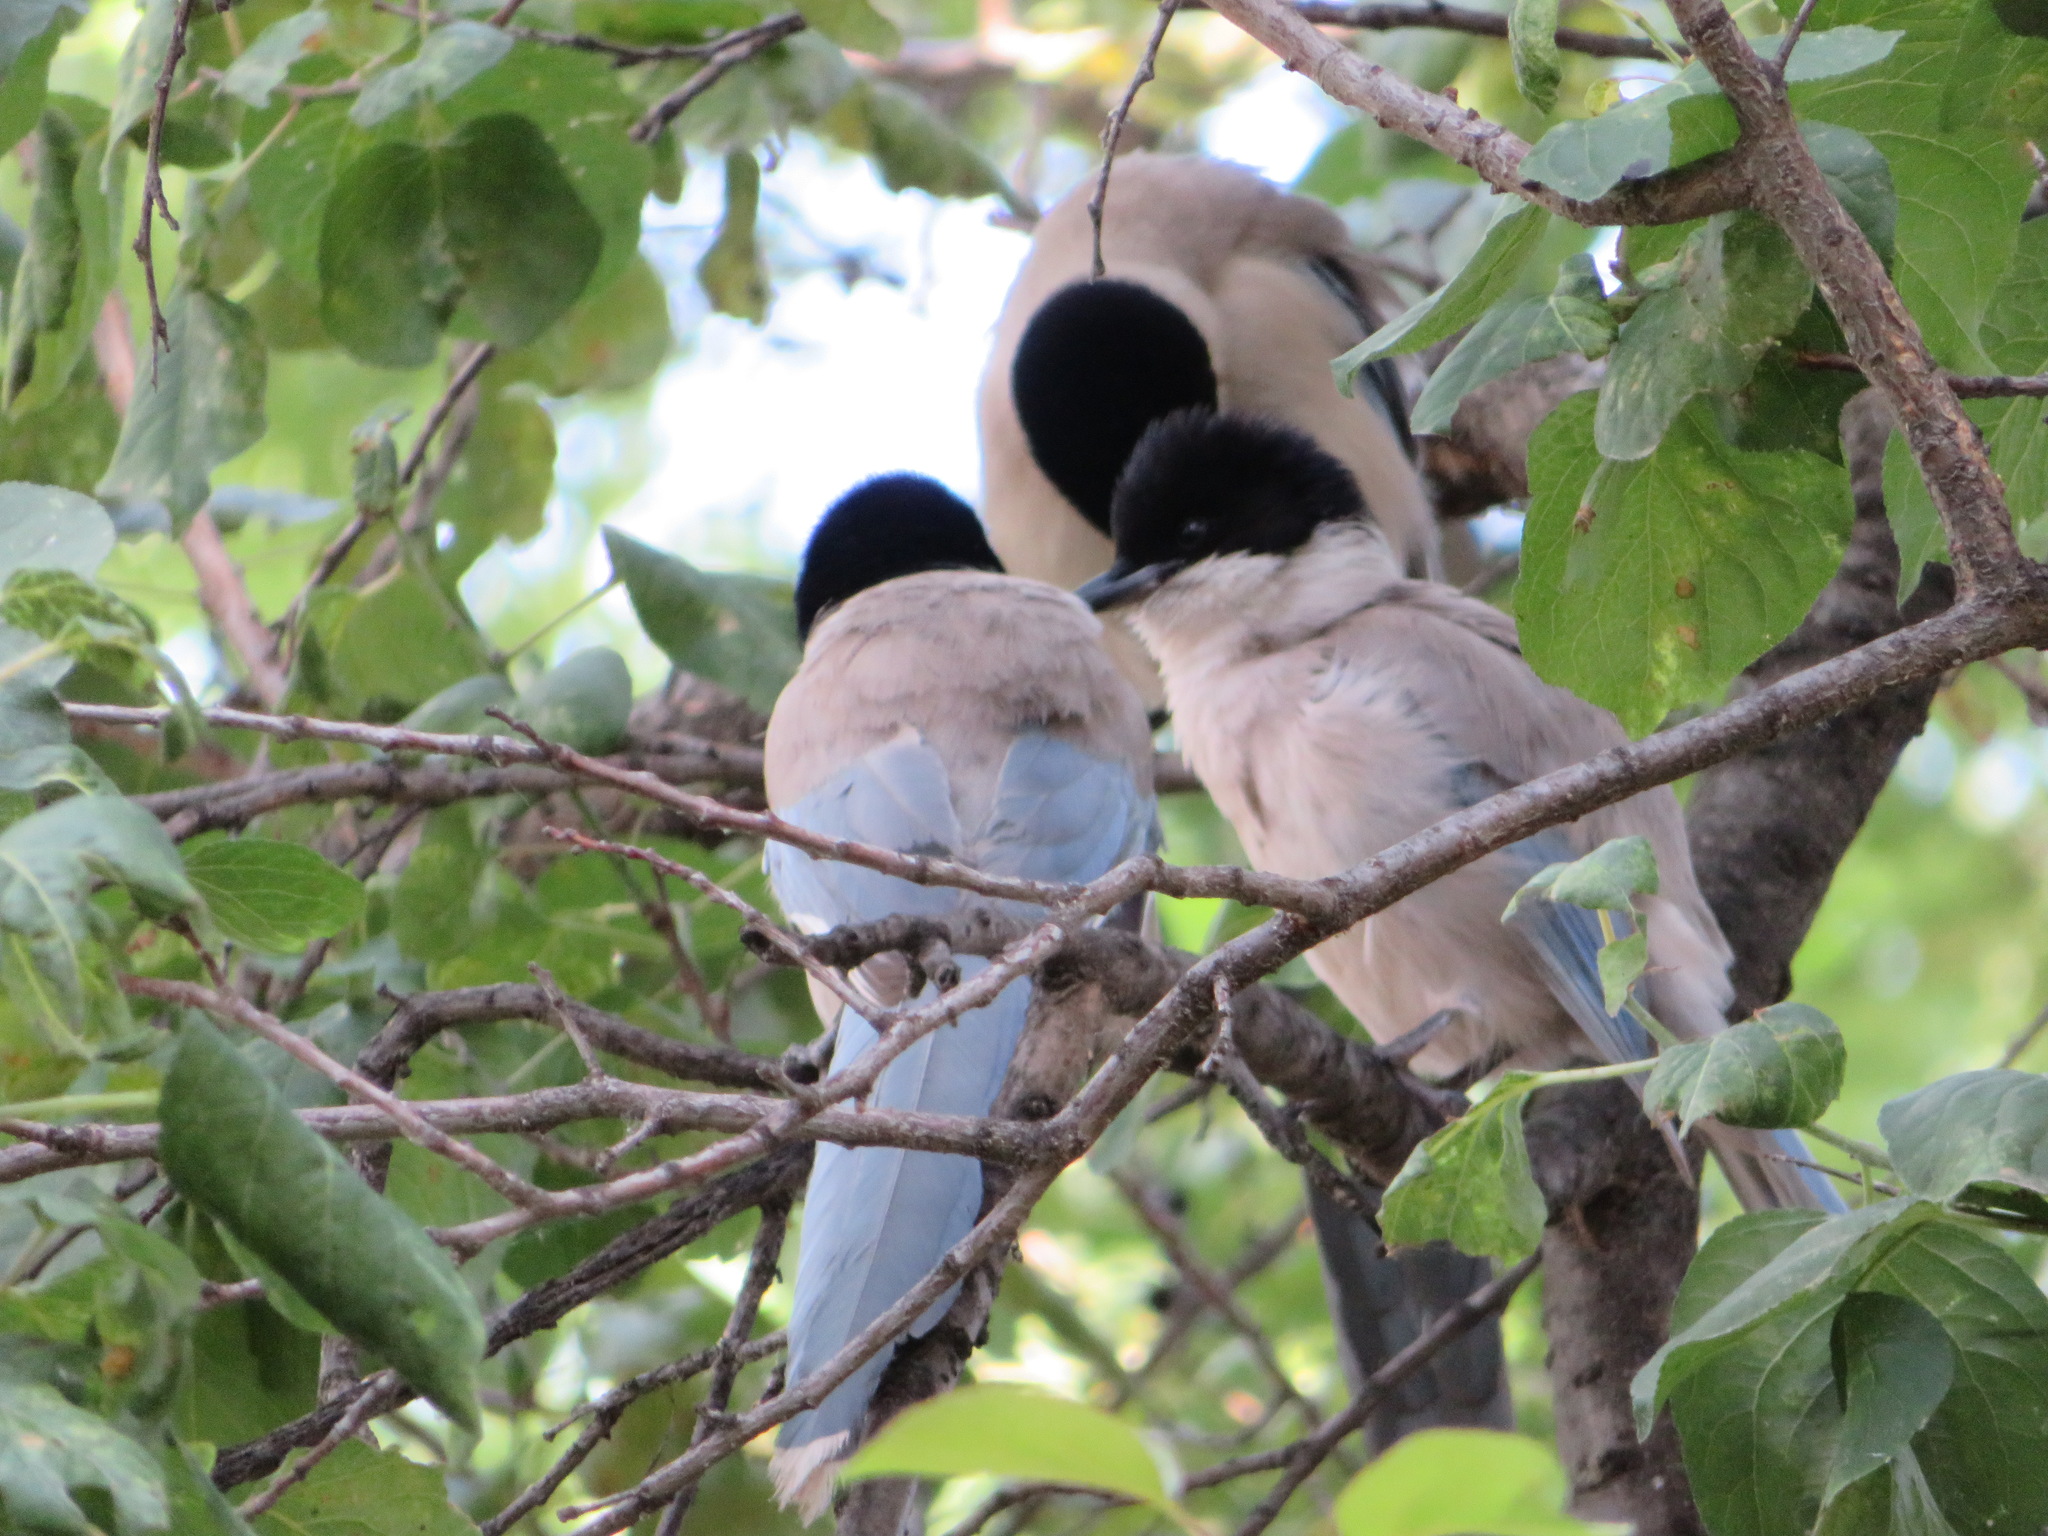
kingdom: Animalia
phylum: Chordata
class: Aves
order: Passeriformes
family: Corvidae
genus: Cyanopica
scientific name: Cyanopica cyanus
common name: Azure-winged magpie
